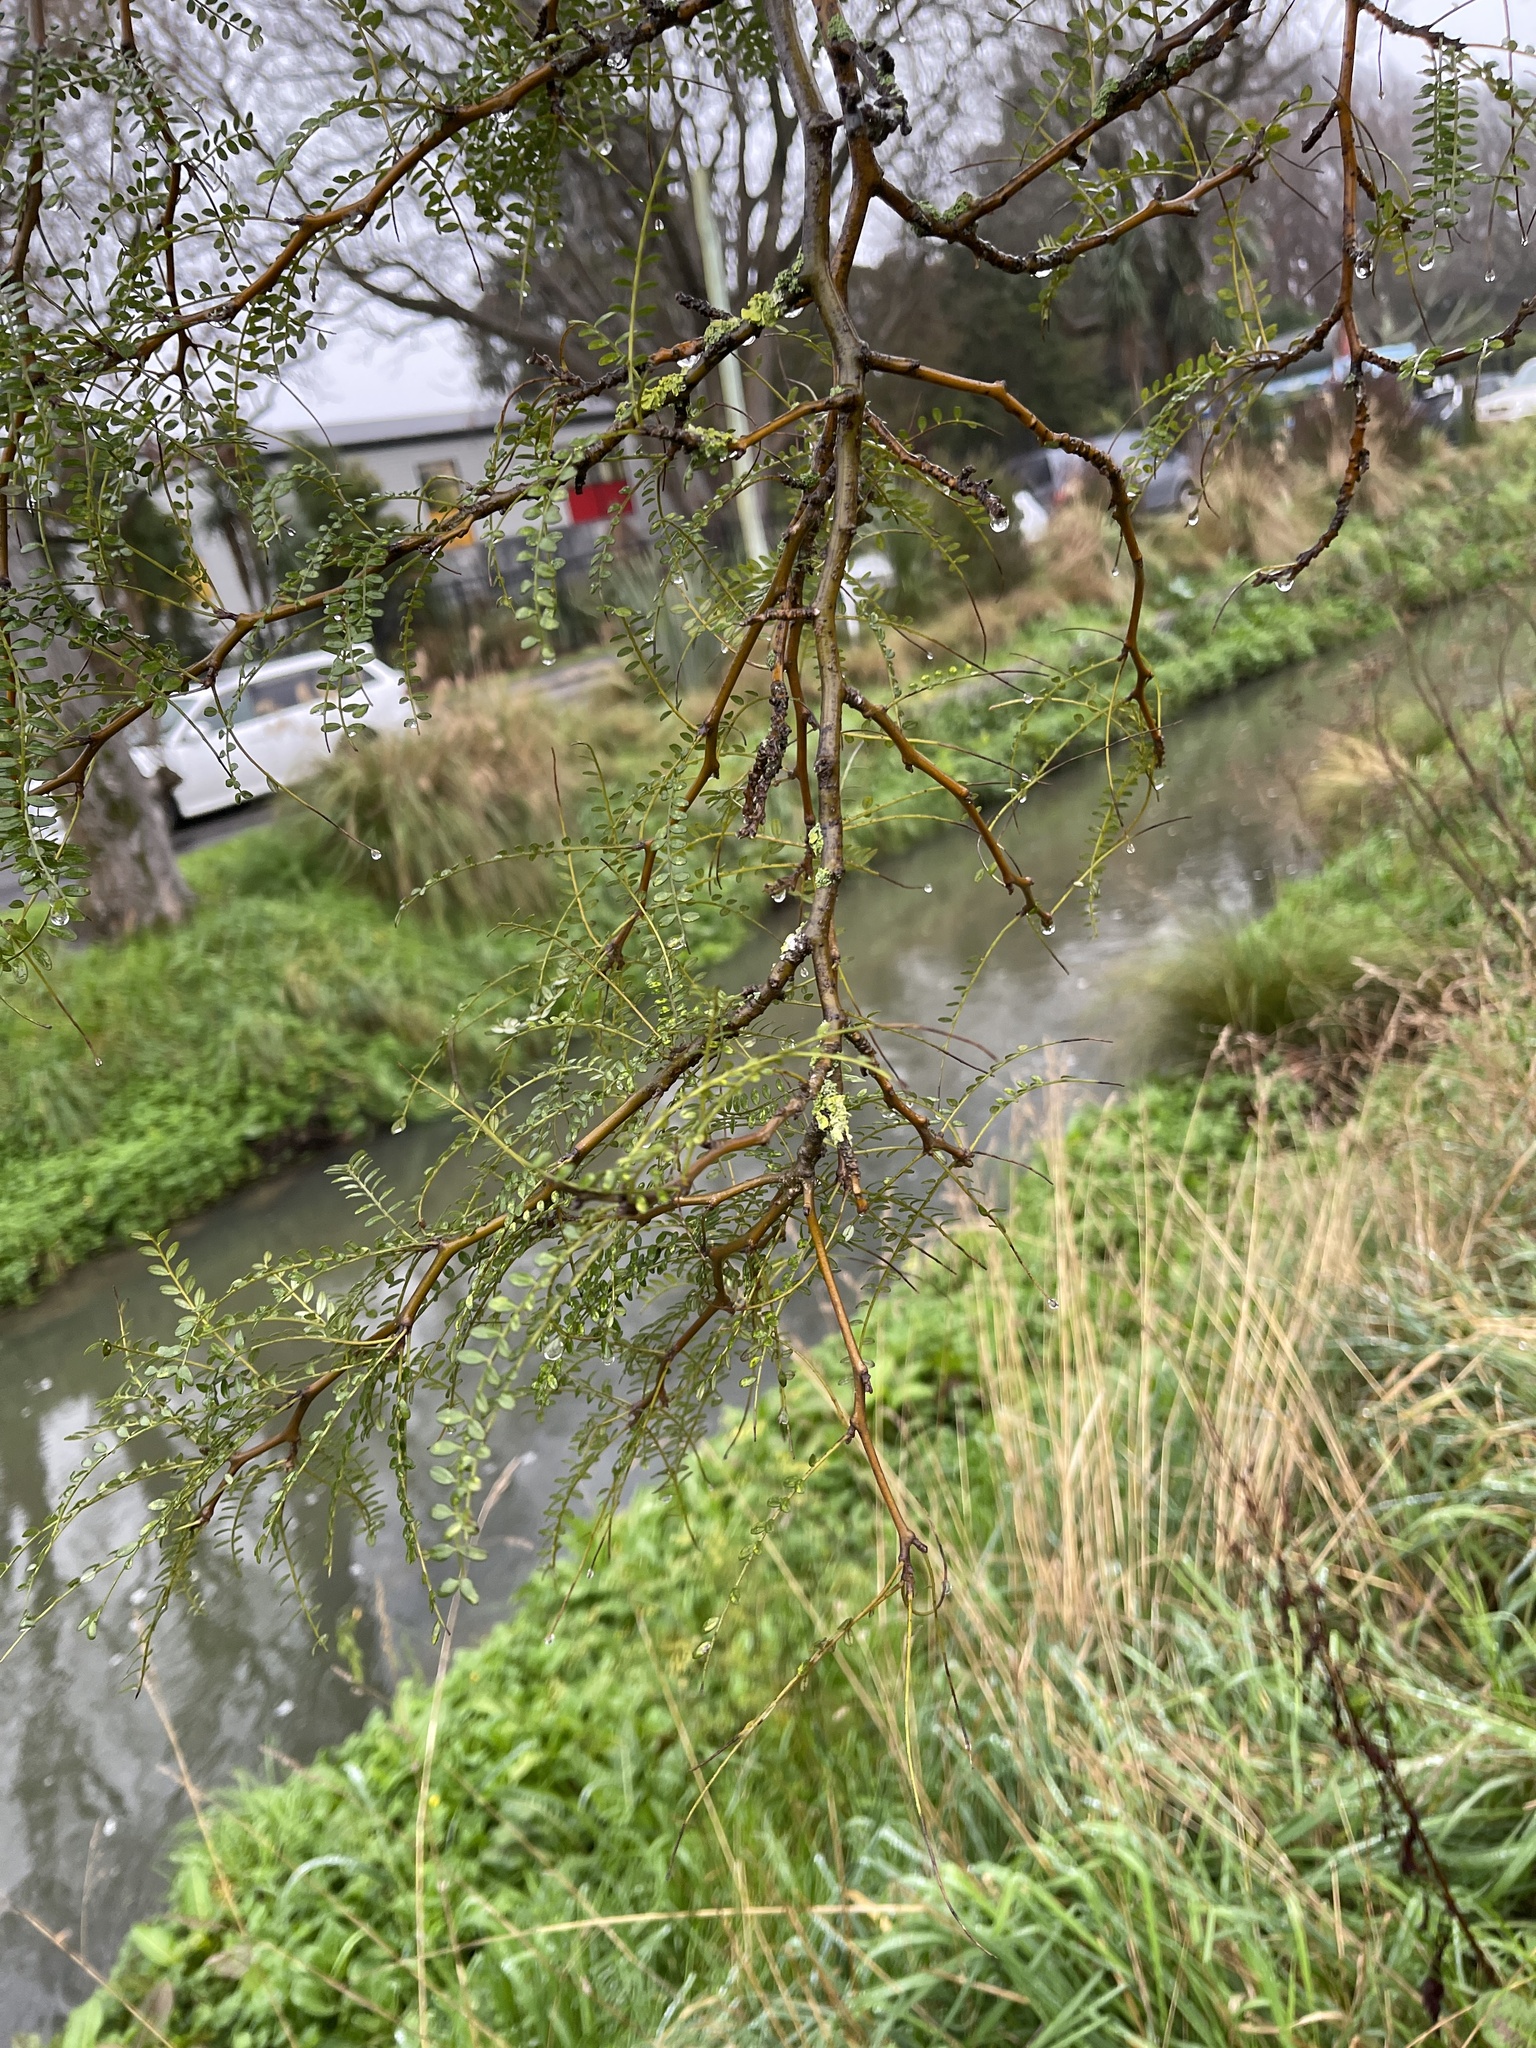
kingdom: Plantae
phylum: Tracheophyta
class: Magnoliopsida
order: Fabales
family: Fabaceae
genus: Sophora
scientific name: Sophora microphylla
